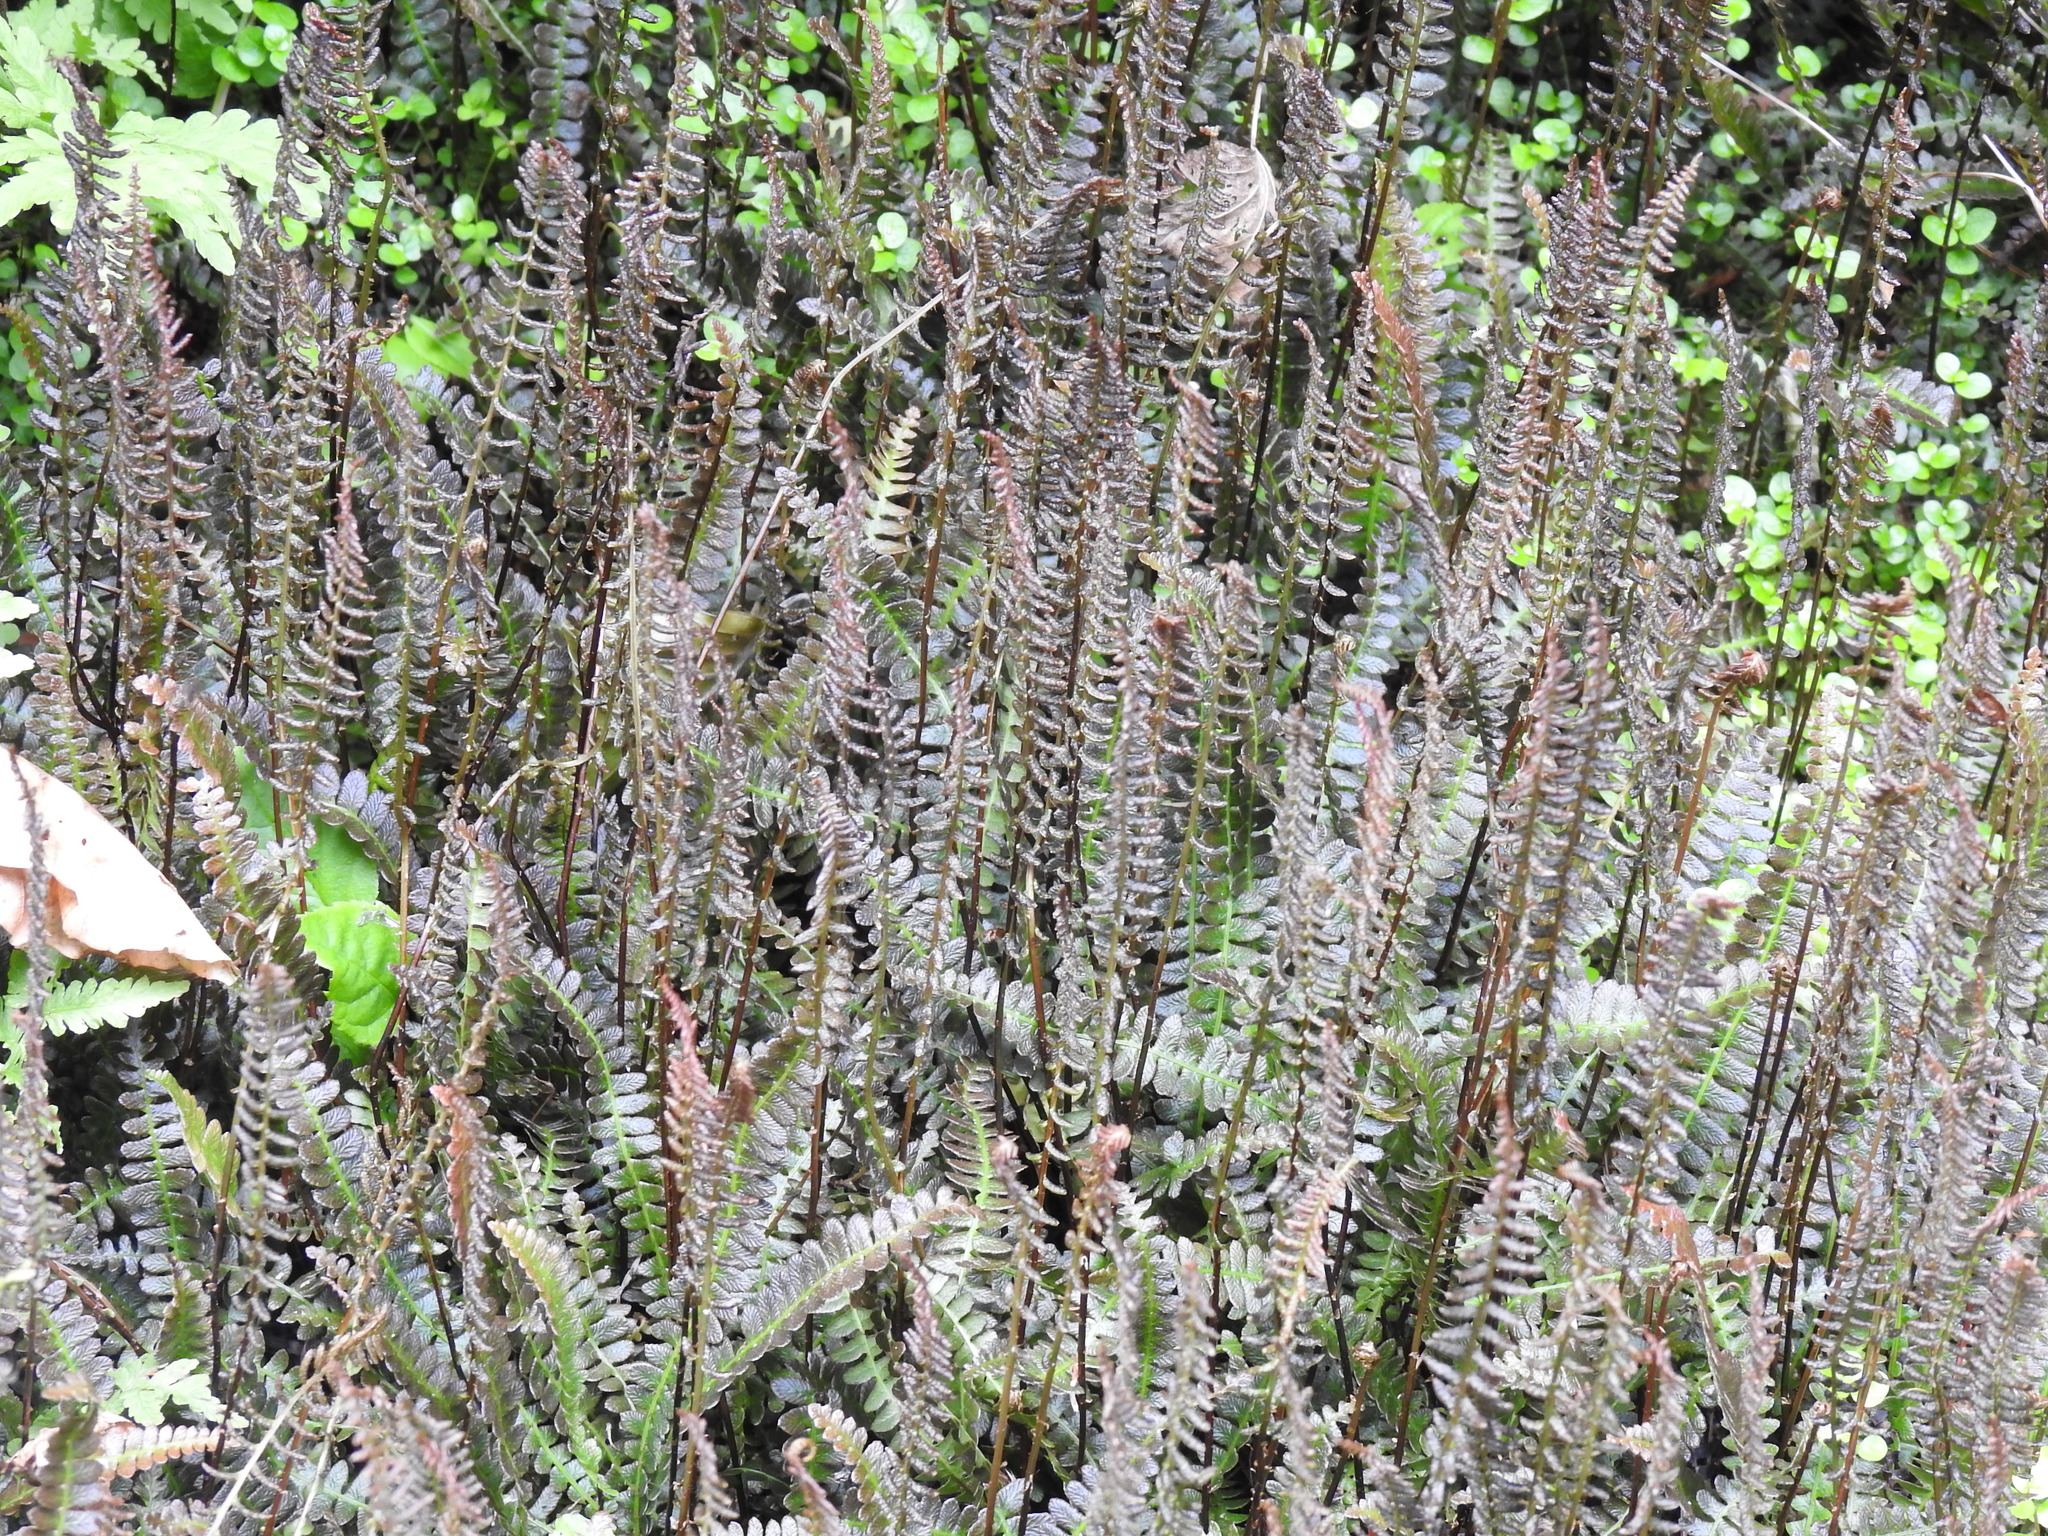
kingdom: Plantae
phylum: Tracheophyta
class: Polypodiopsida
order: Polypodiales
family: Blechnaceae
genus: Austroblechnum
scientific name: Austroblechnum penna-marina
